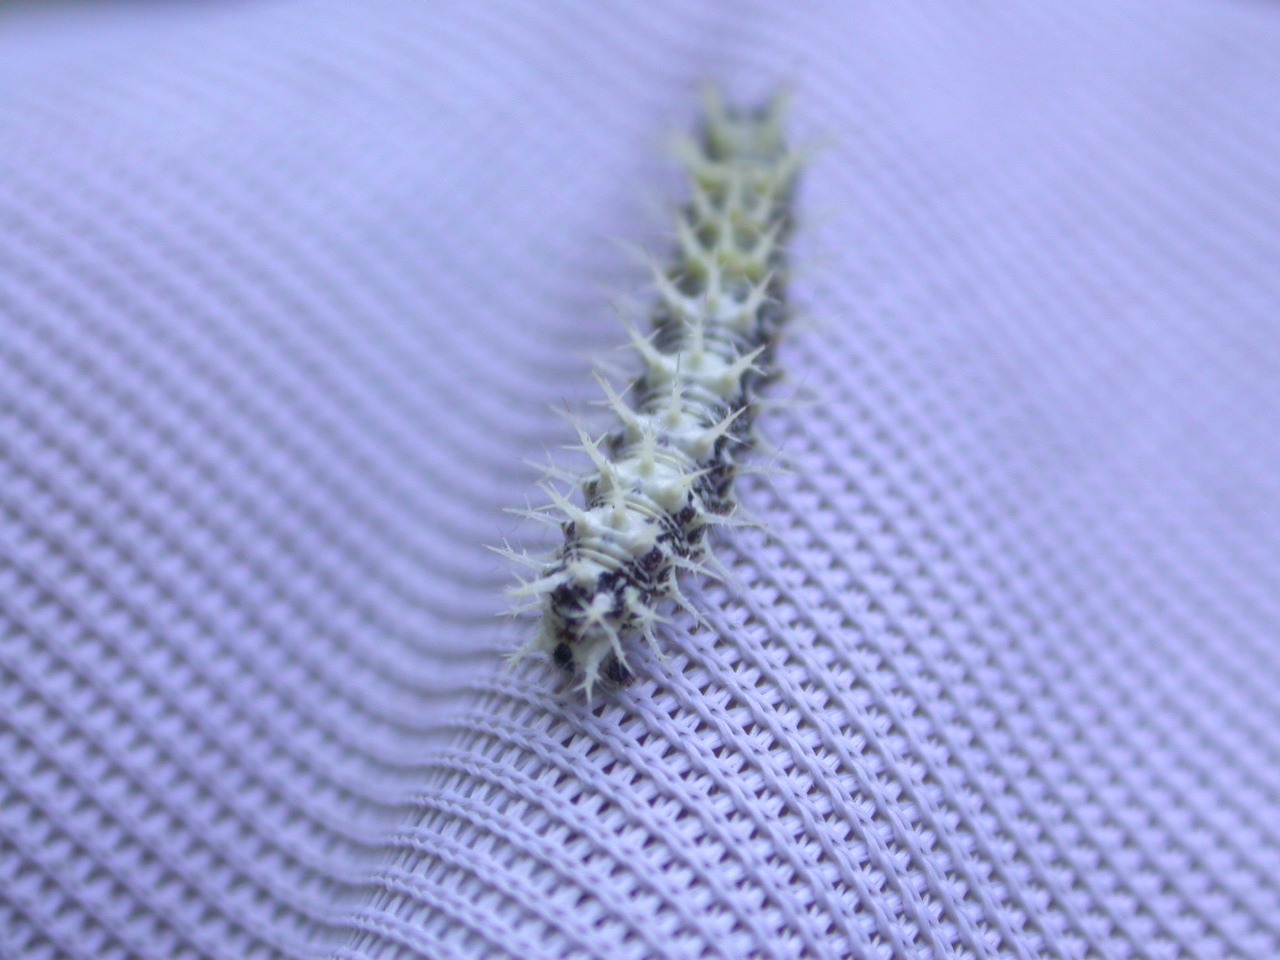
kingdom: Animalia
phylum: Arthropoda
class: Insecta
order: Lepidoptera
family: Nymphalidae
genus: Polygonia
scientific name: Polygonia c-album
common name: Comma
